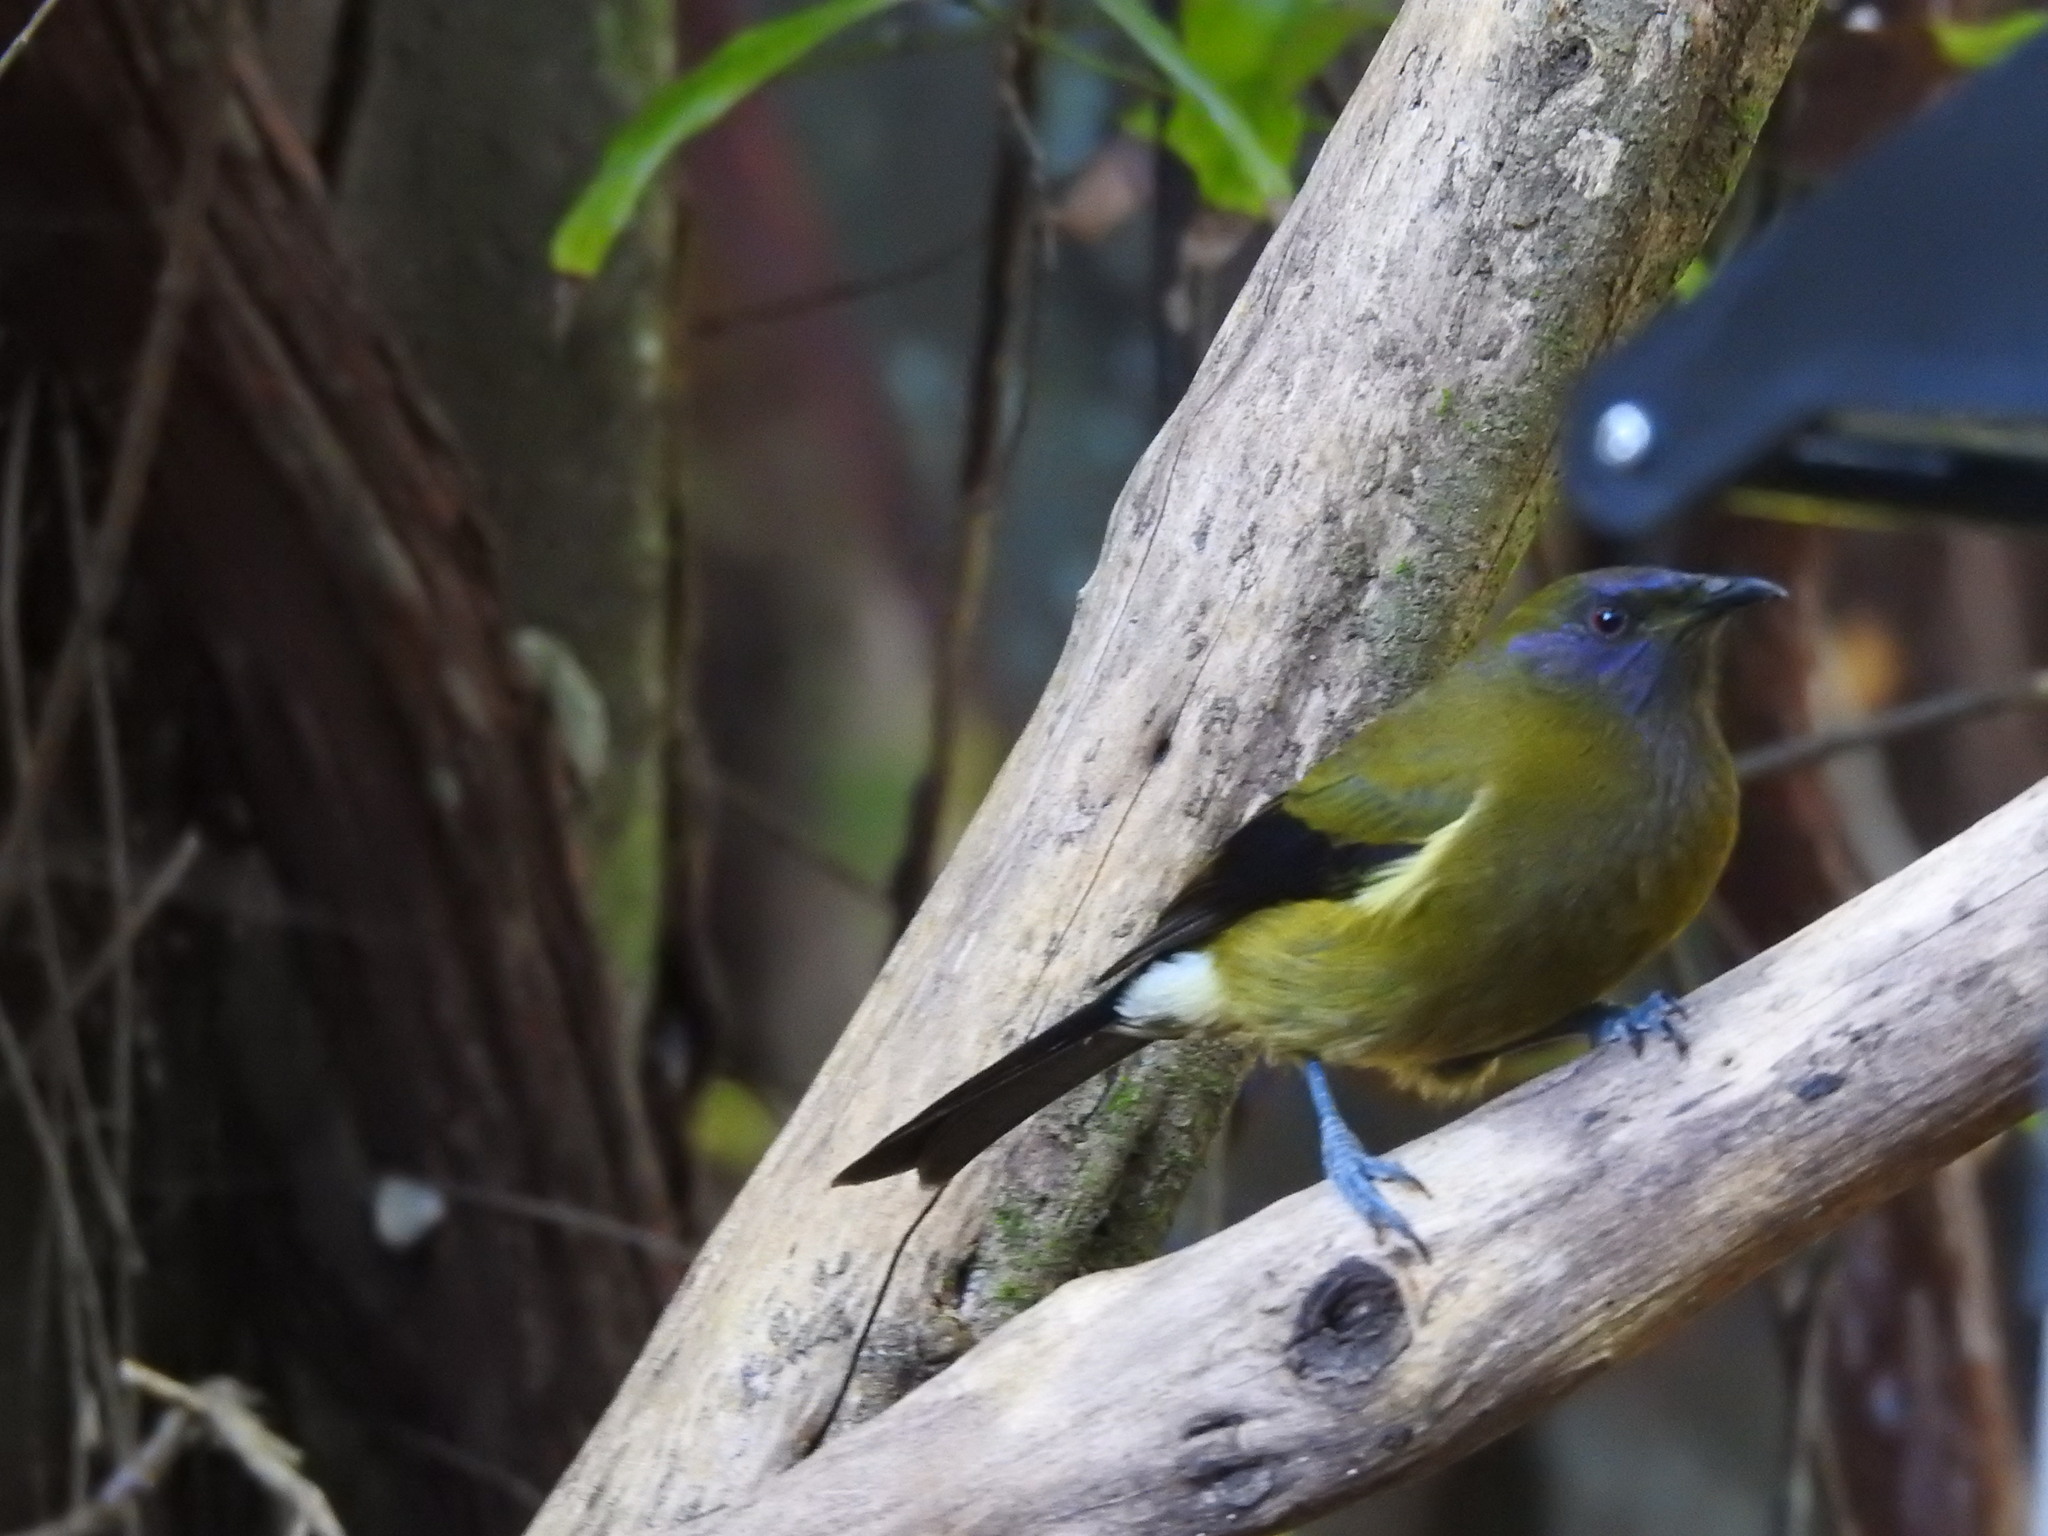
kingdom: Animalia
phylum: Chordata
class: Aves
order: Passeriformes
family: Meliphagidae
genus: Anthornis
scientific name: Anthornis melanura
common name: New zealand bellbird
